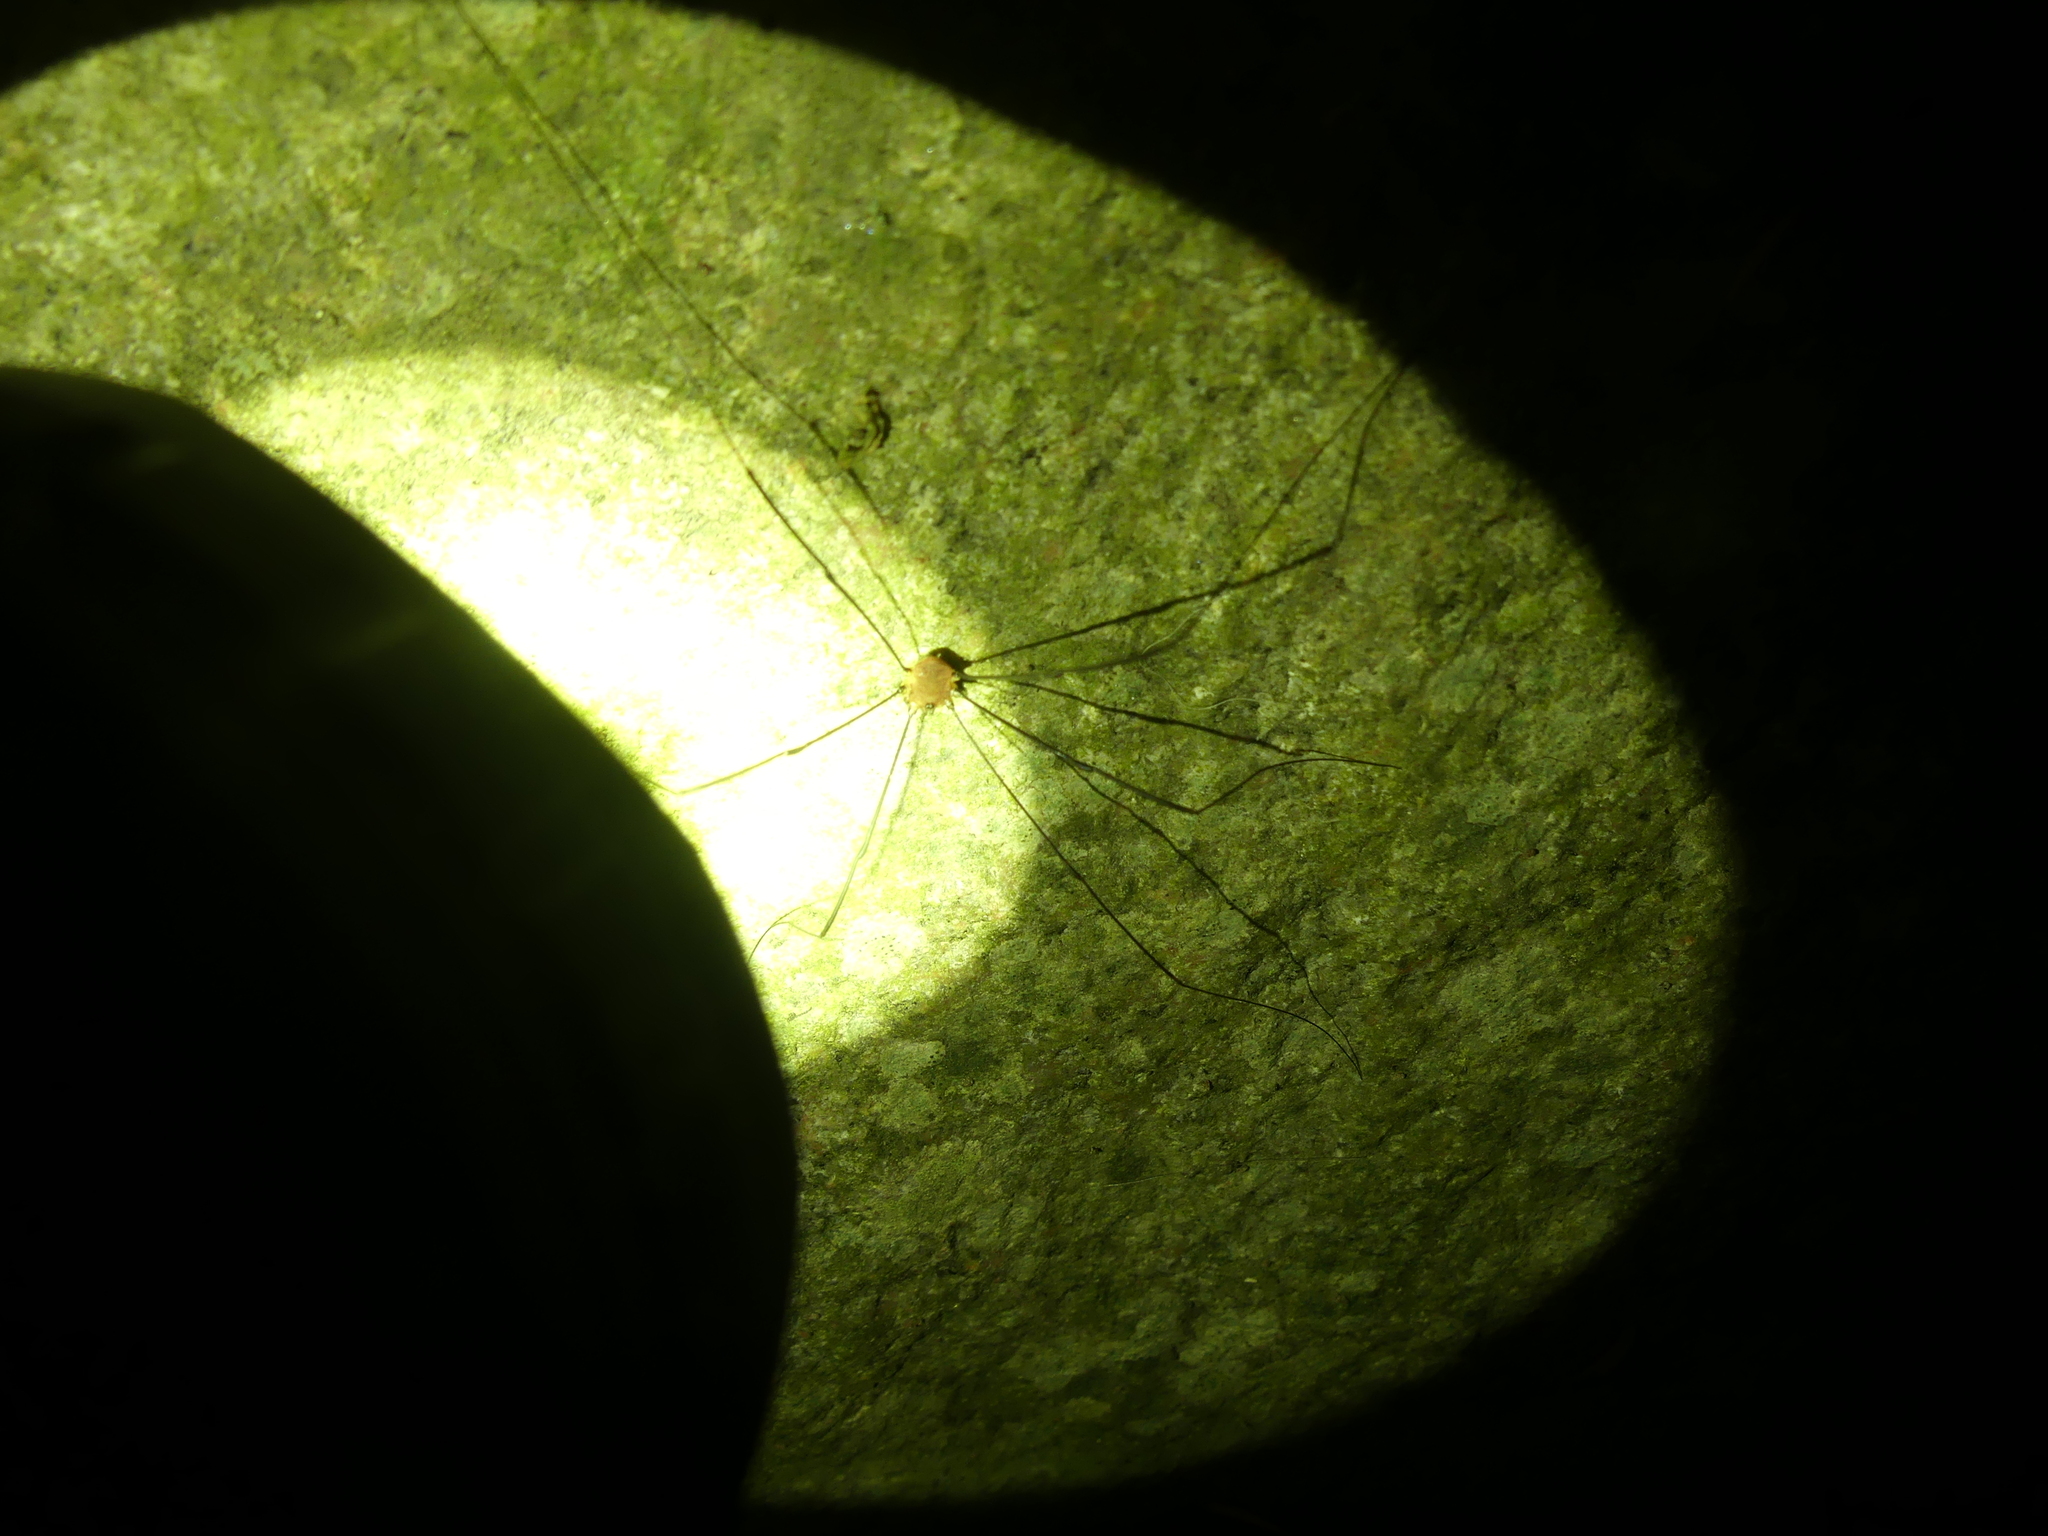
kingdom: Animalia
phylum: Arthropoda
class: Arachnida
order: Opiliones
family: Sclerosomatidae
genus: Leiobunum
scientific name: Leiobunum rotundum
